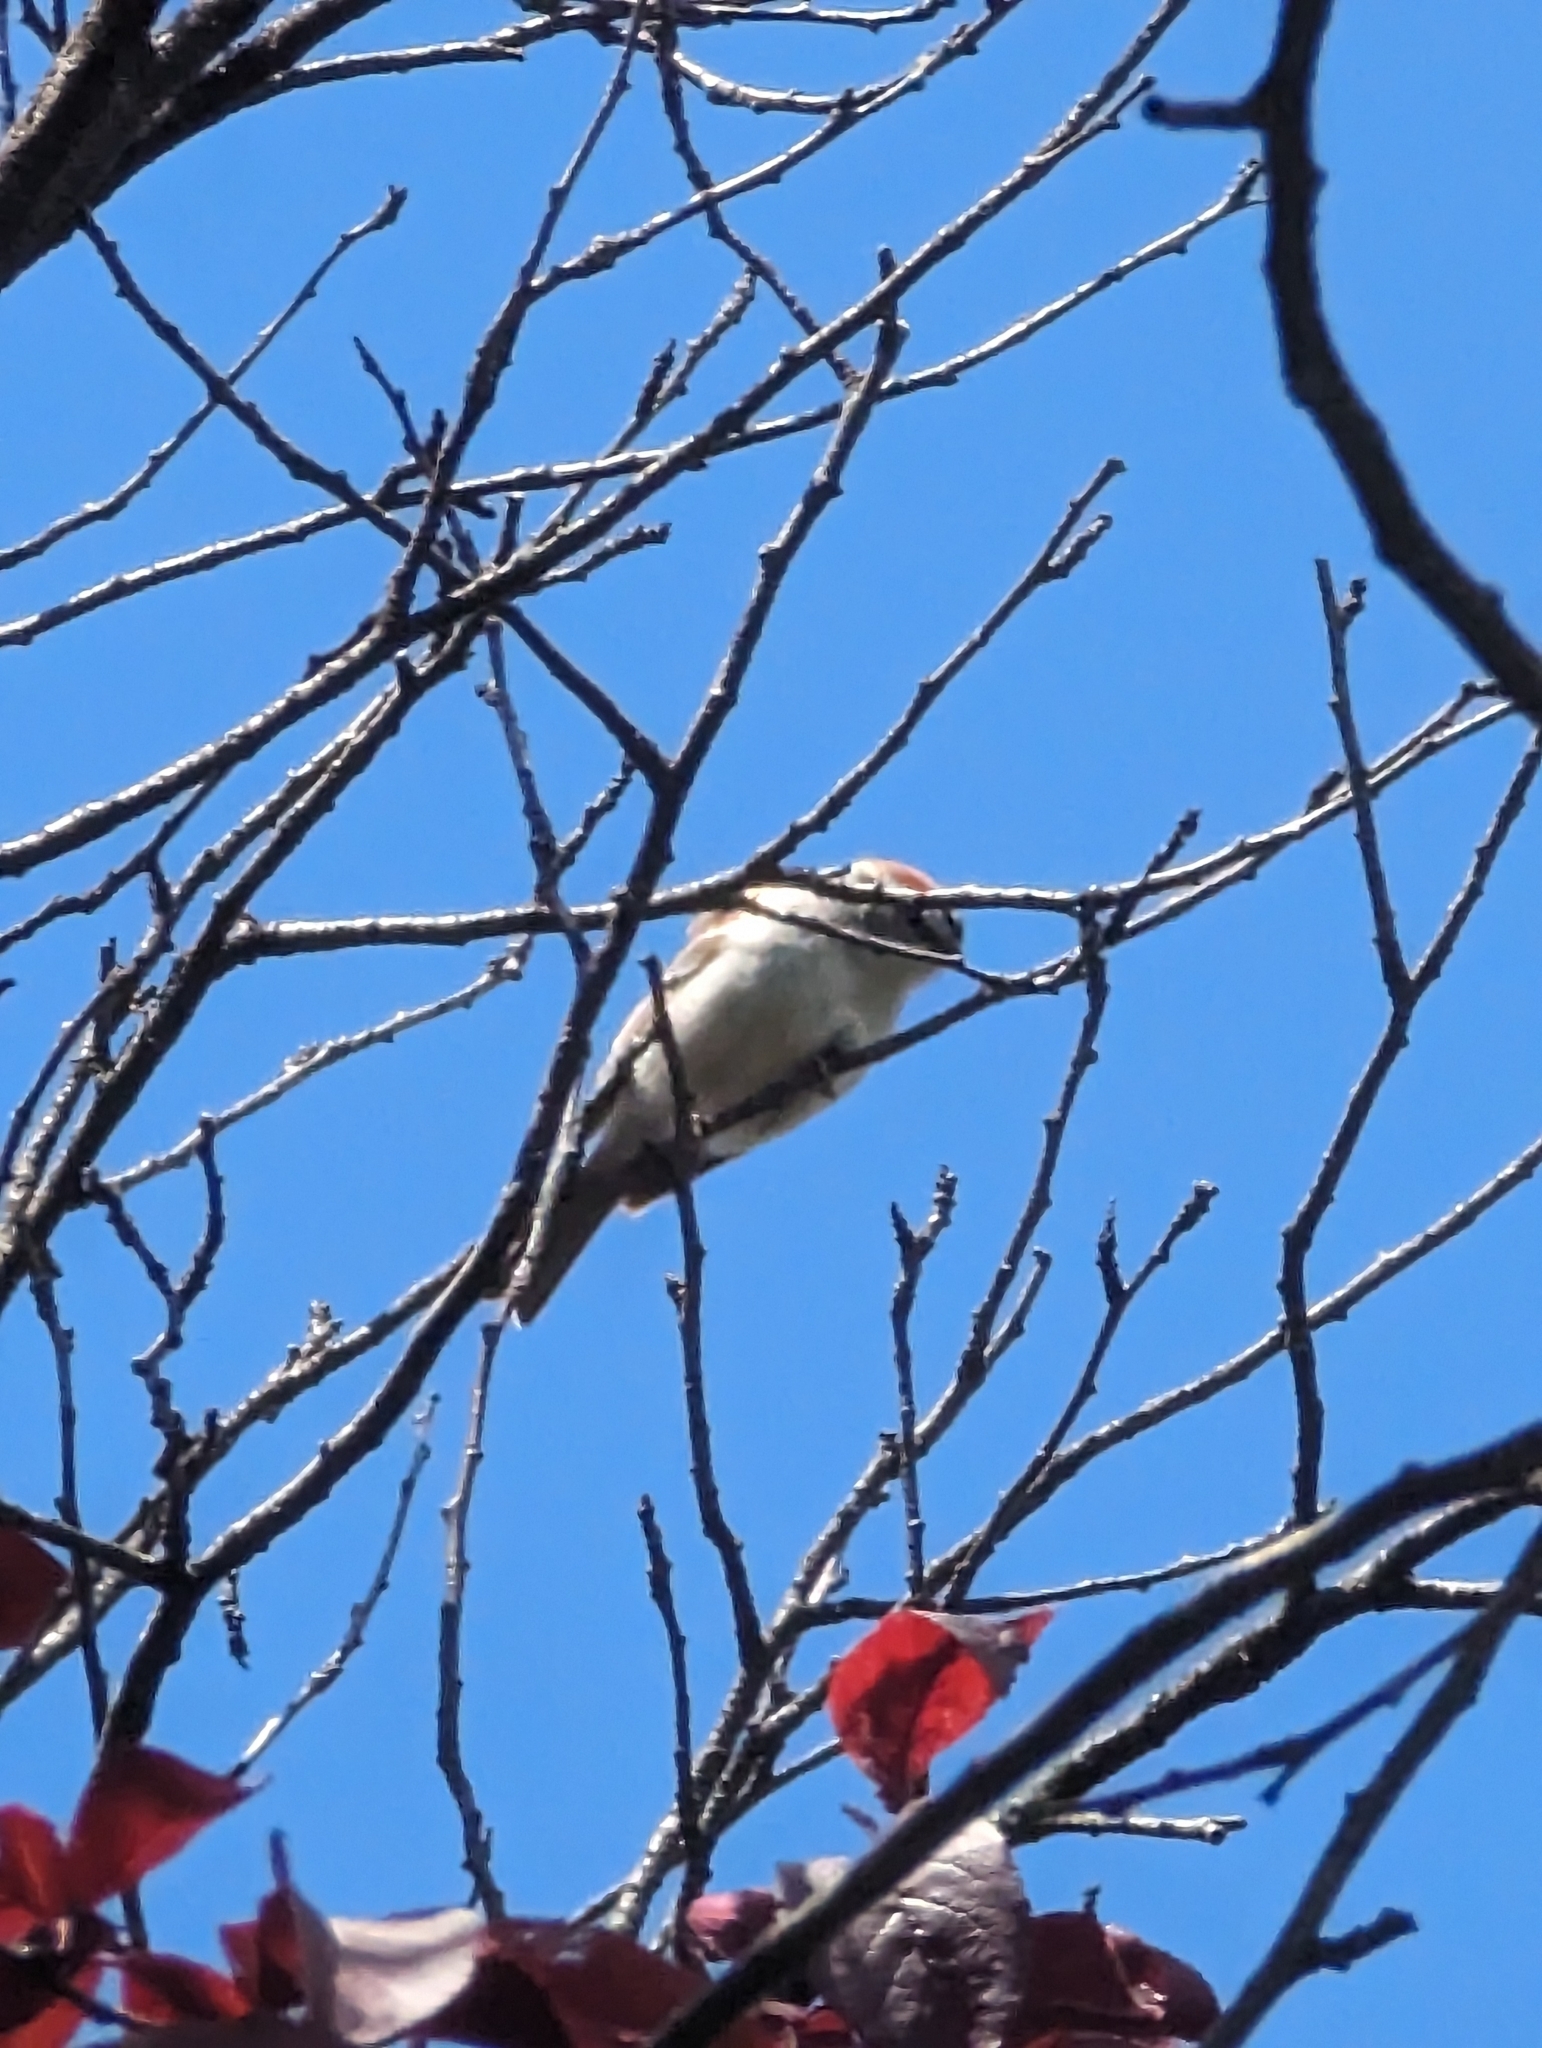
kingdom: Animalia
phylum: Chordata
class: Aves
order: Passeriformes
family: Passerellidae
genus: Spizella
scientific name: Spizella passerina
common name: Chipping sparrow
